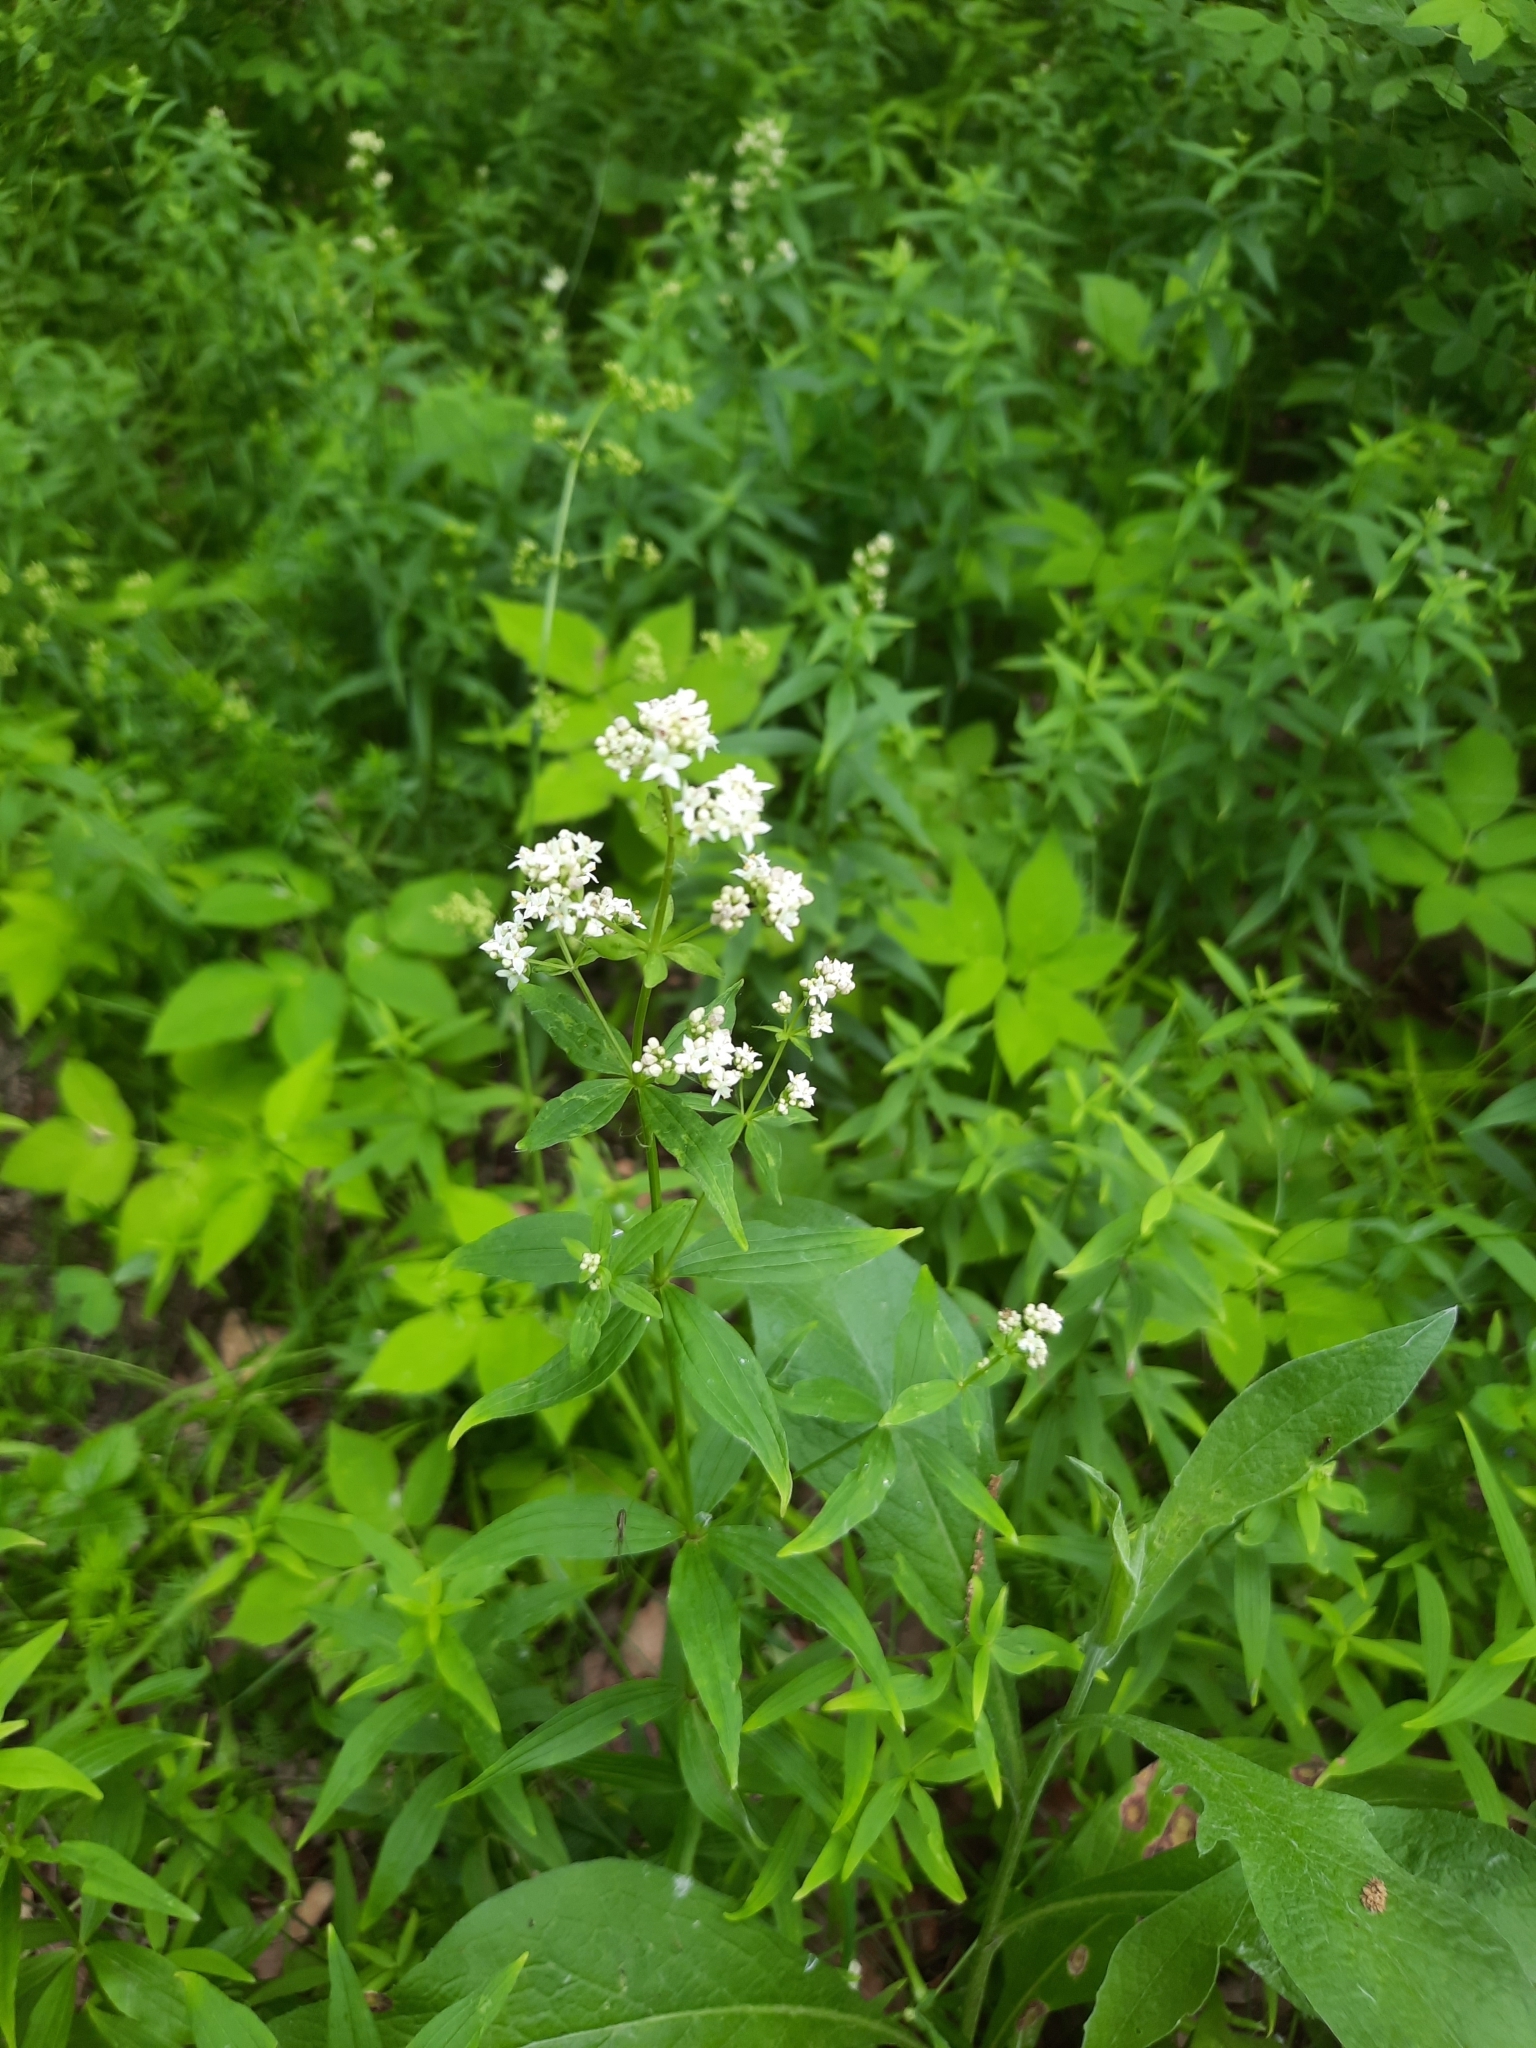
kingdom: Plantae
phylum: Tracheophyta
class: Magnoliopsida
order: Gentianales
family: Rubiaceae
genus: Galium
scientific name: Galium boreale
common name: Northern bedstraw
